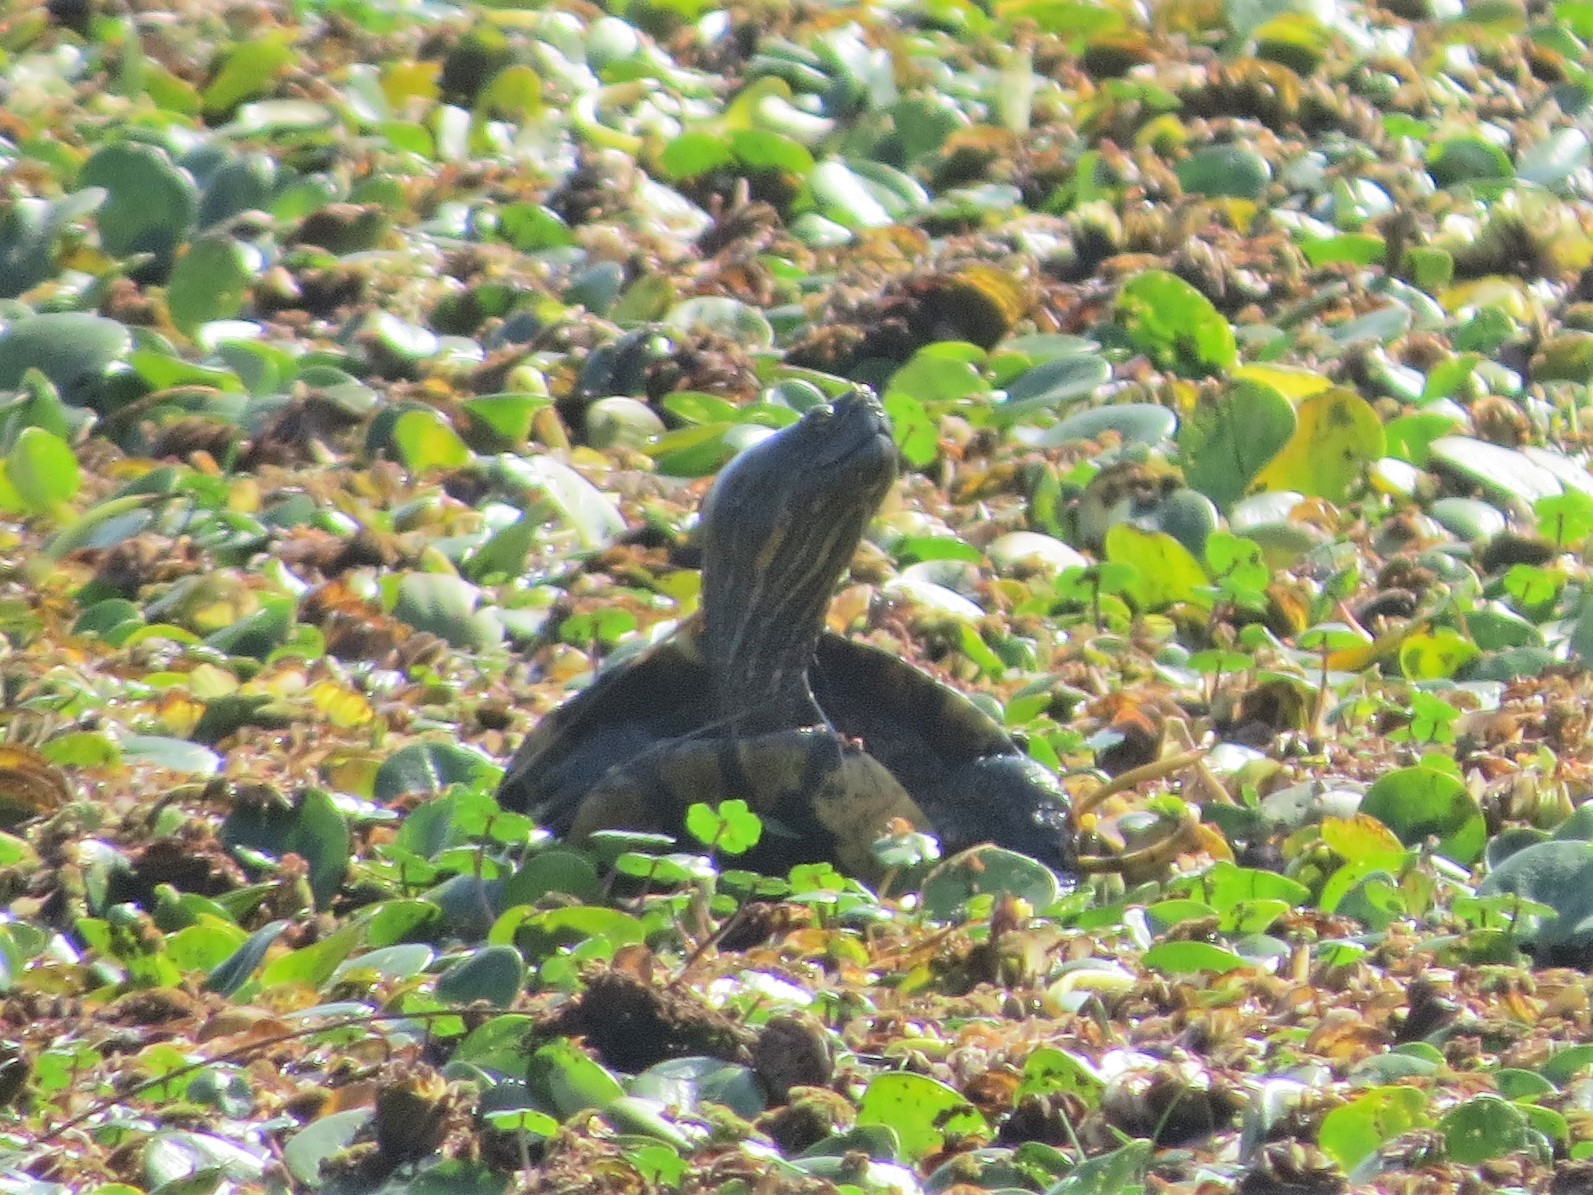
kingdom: Animalia
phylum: Chordata
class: Testudines
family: Emydidae
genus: Trachemys
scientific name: Trachemys dorbigni
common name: Black-bellied slider
